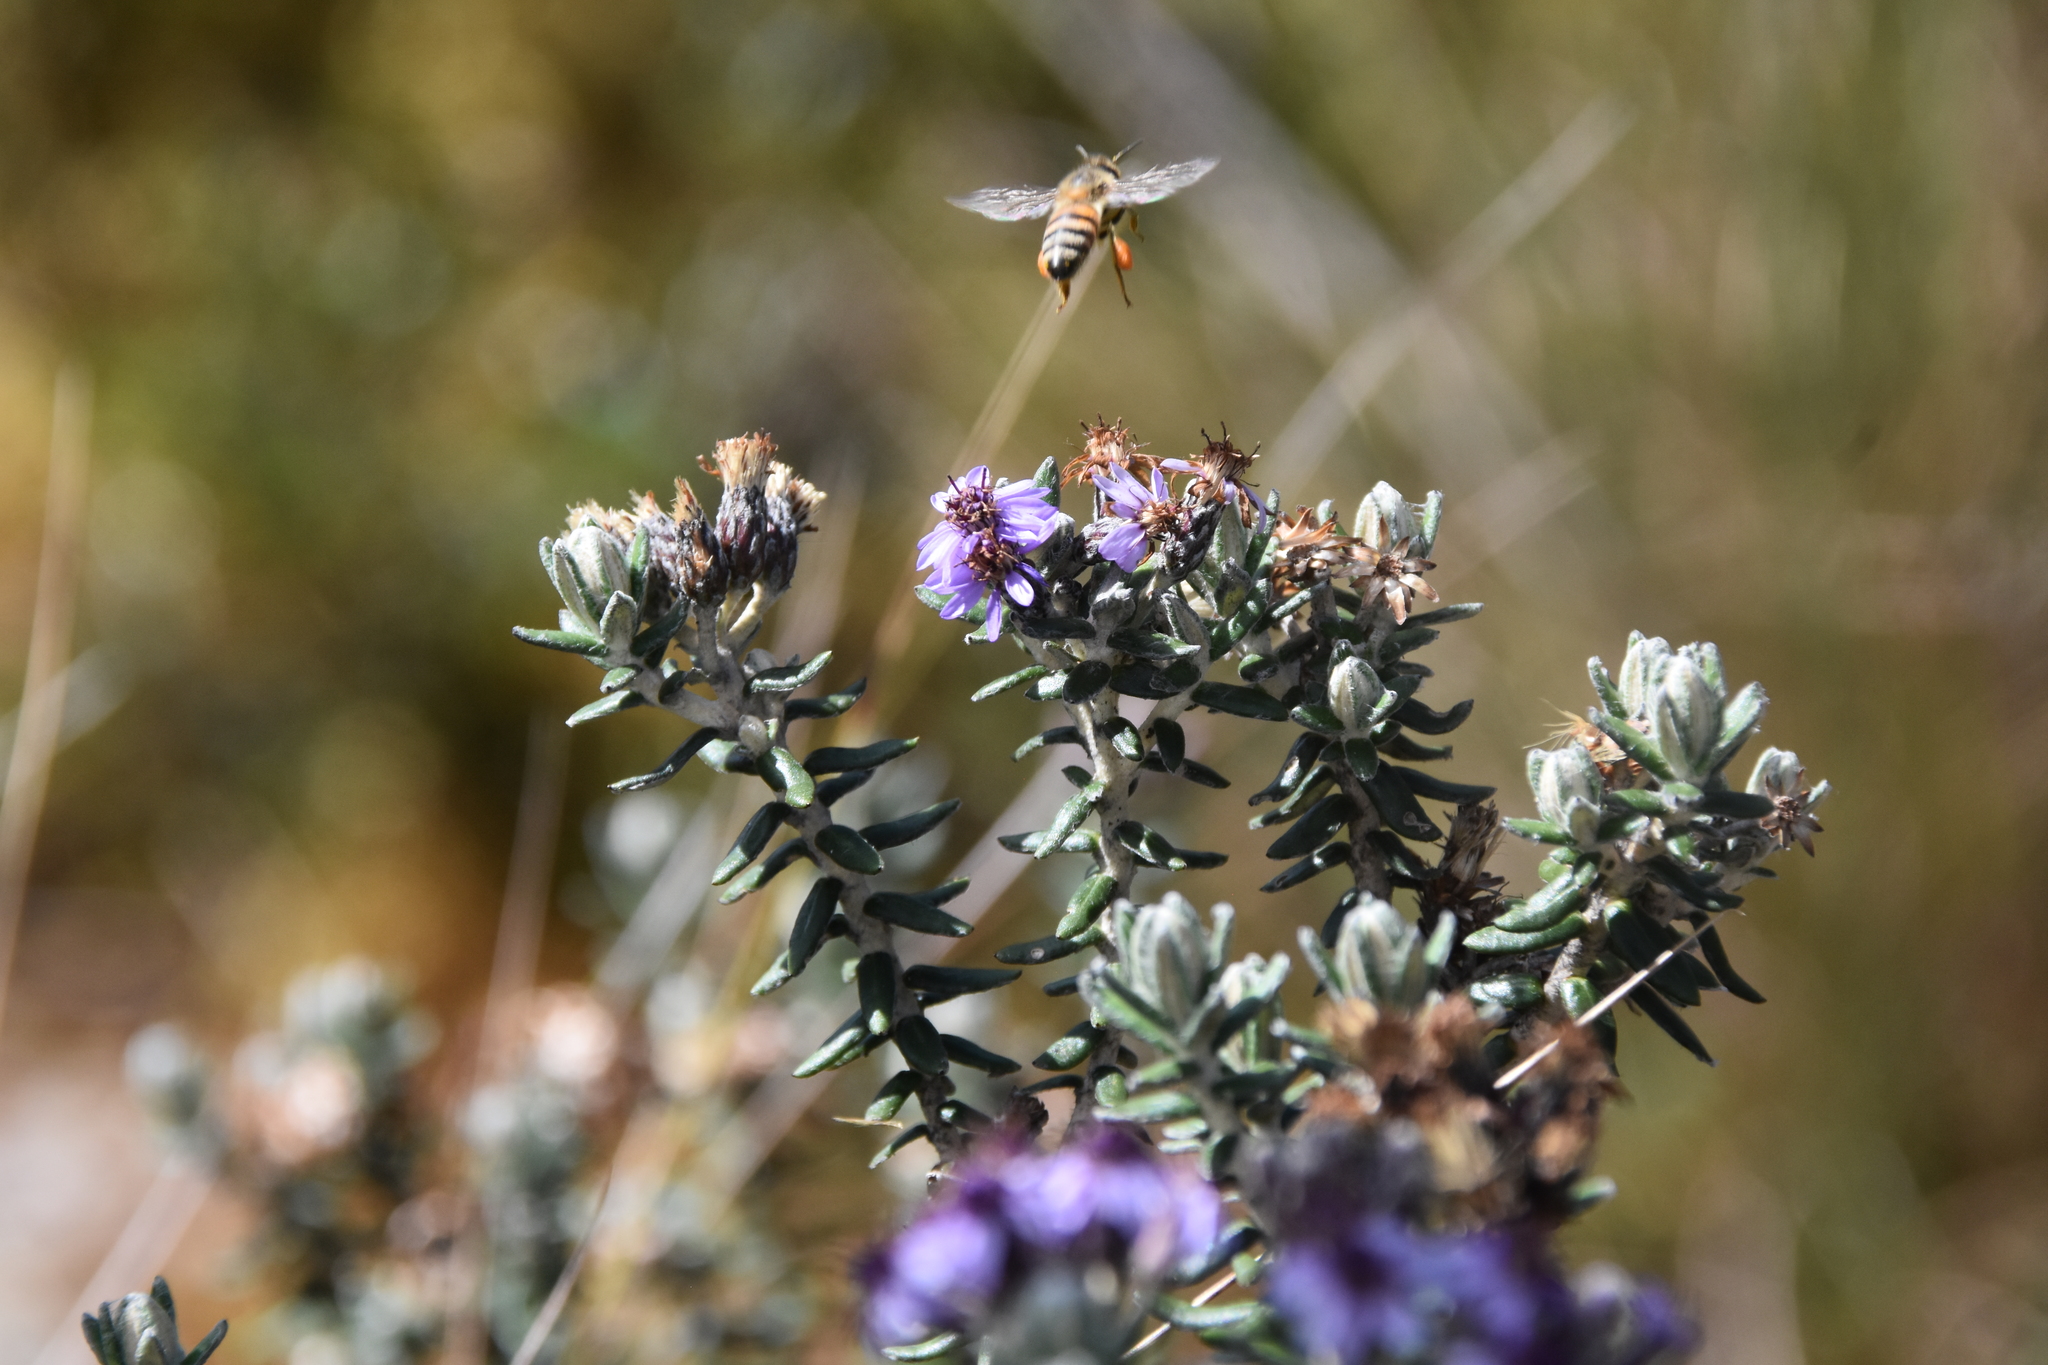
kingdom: Animalia
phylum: Arthropoda
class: Insecta
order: Hymenoptera
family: Apidae
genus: Apis
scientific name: Apis mellifera
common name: Honey bee
